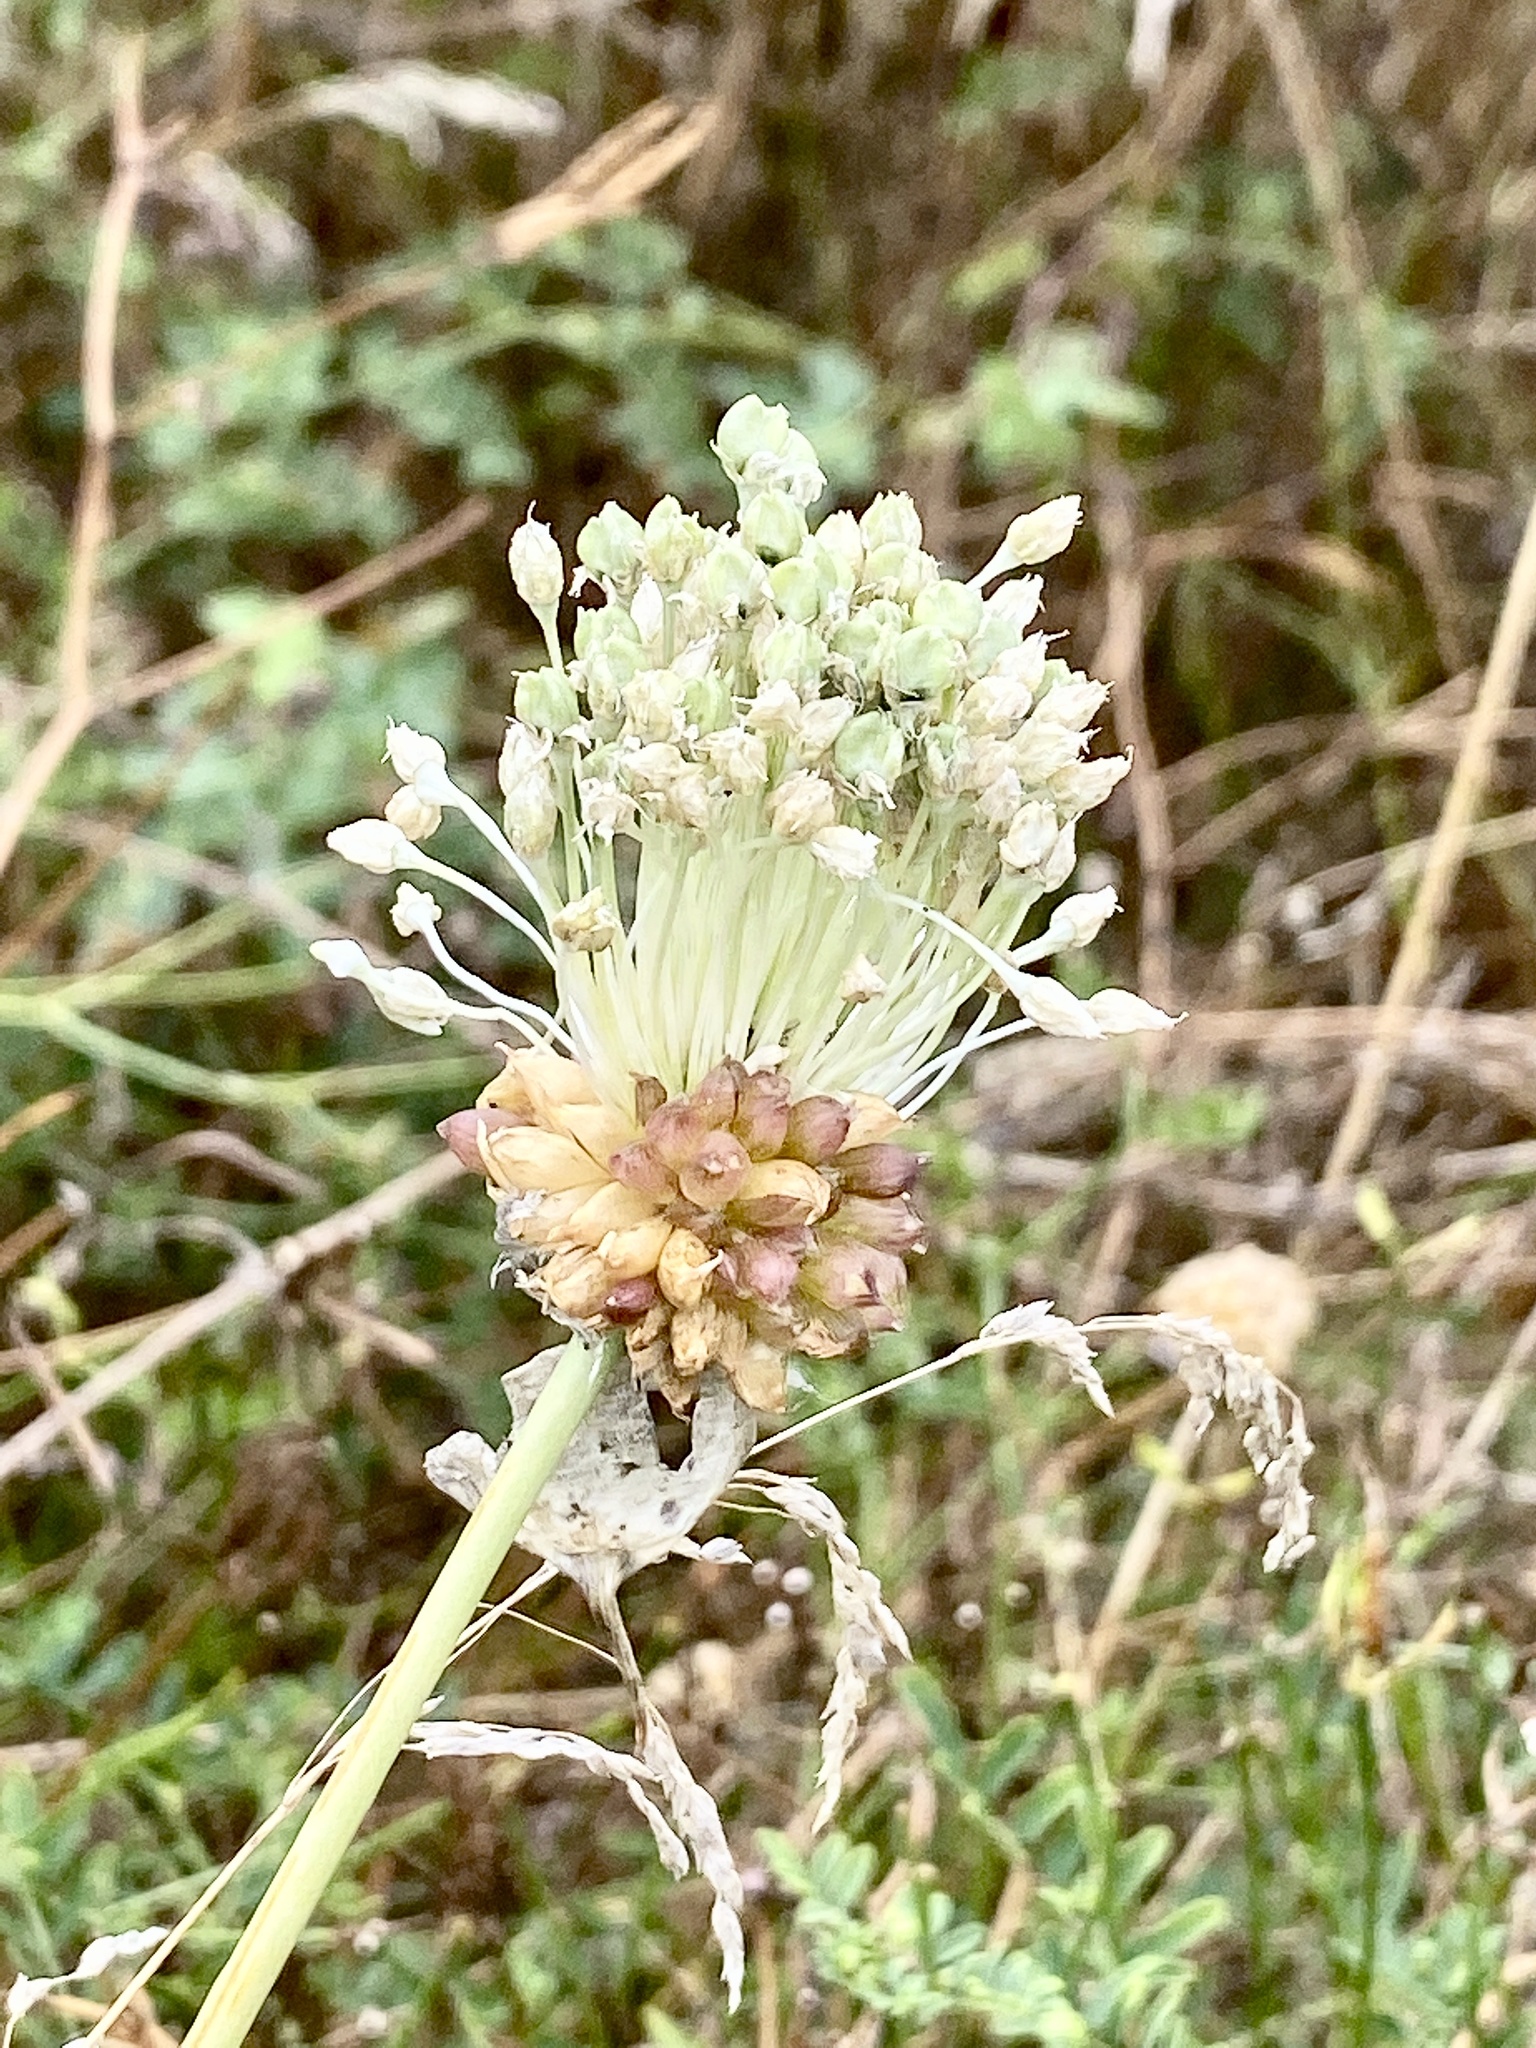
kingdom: Plantae
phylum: Tracheophyta
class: Liliopsida
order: Asparagales
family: Amaryllidaceae
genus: Allium
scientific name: Allium vineale
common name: Crow garlic
